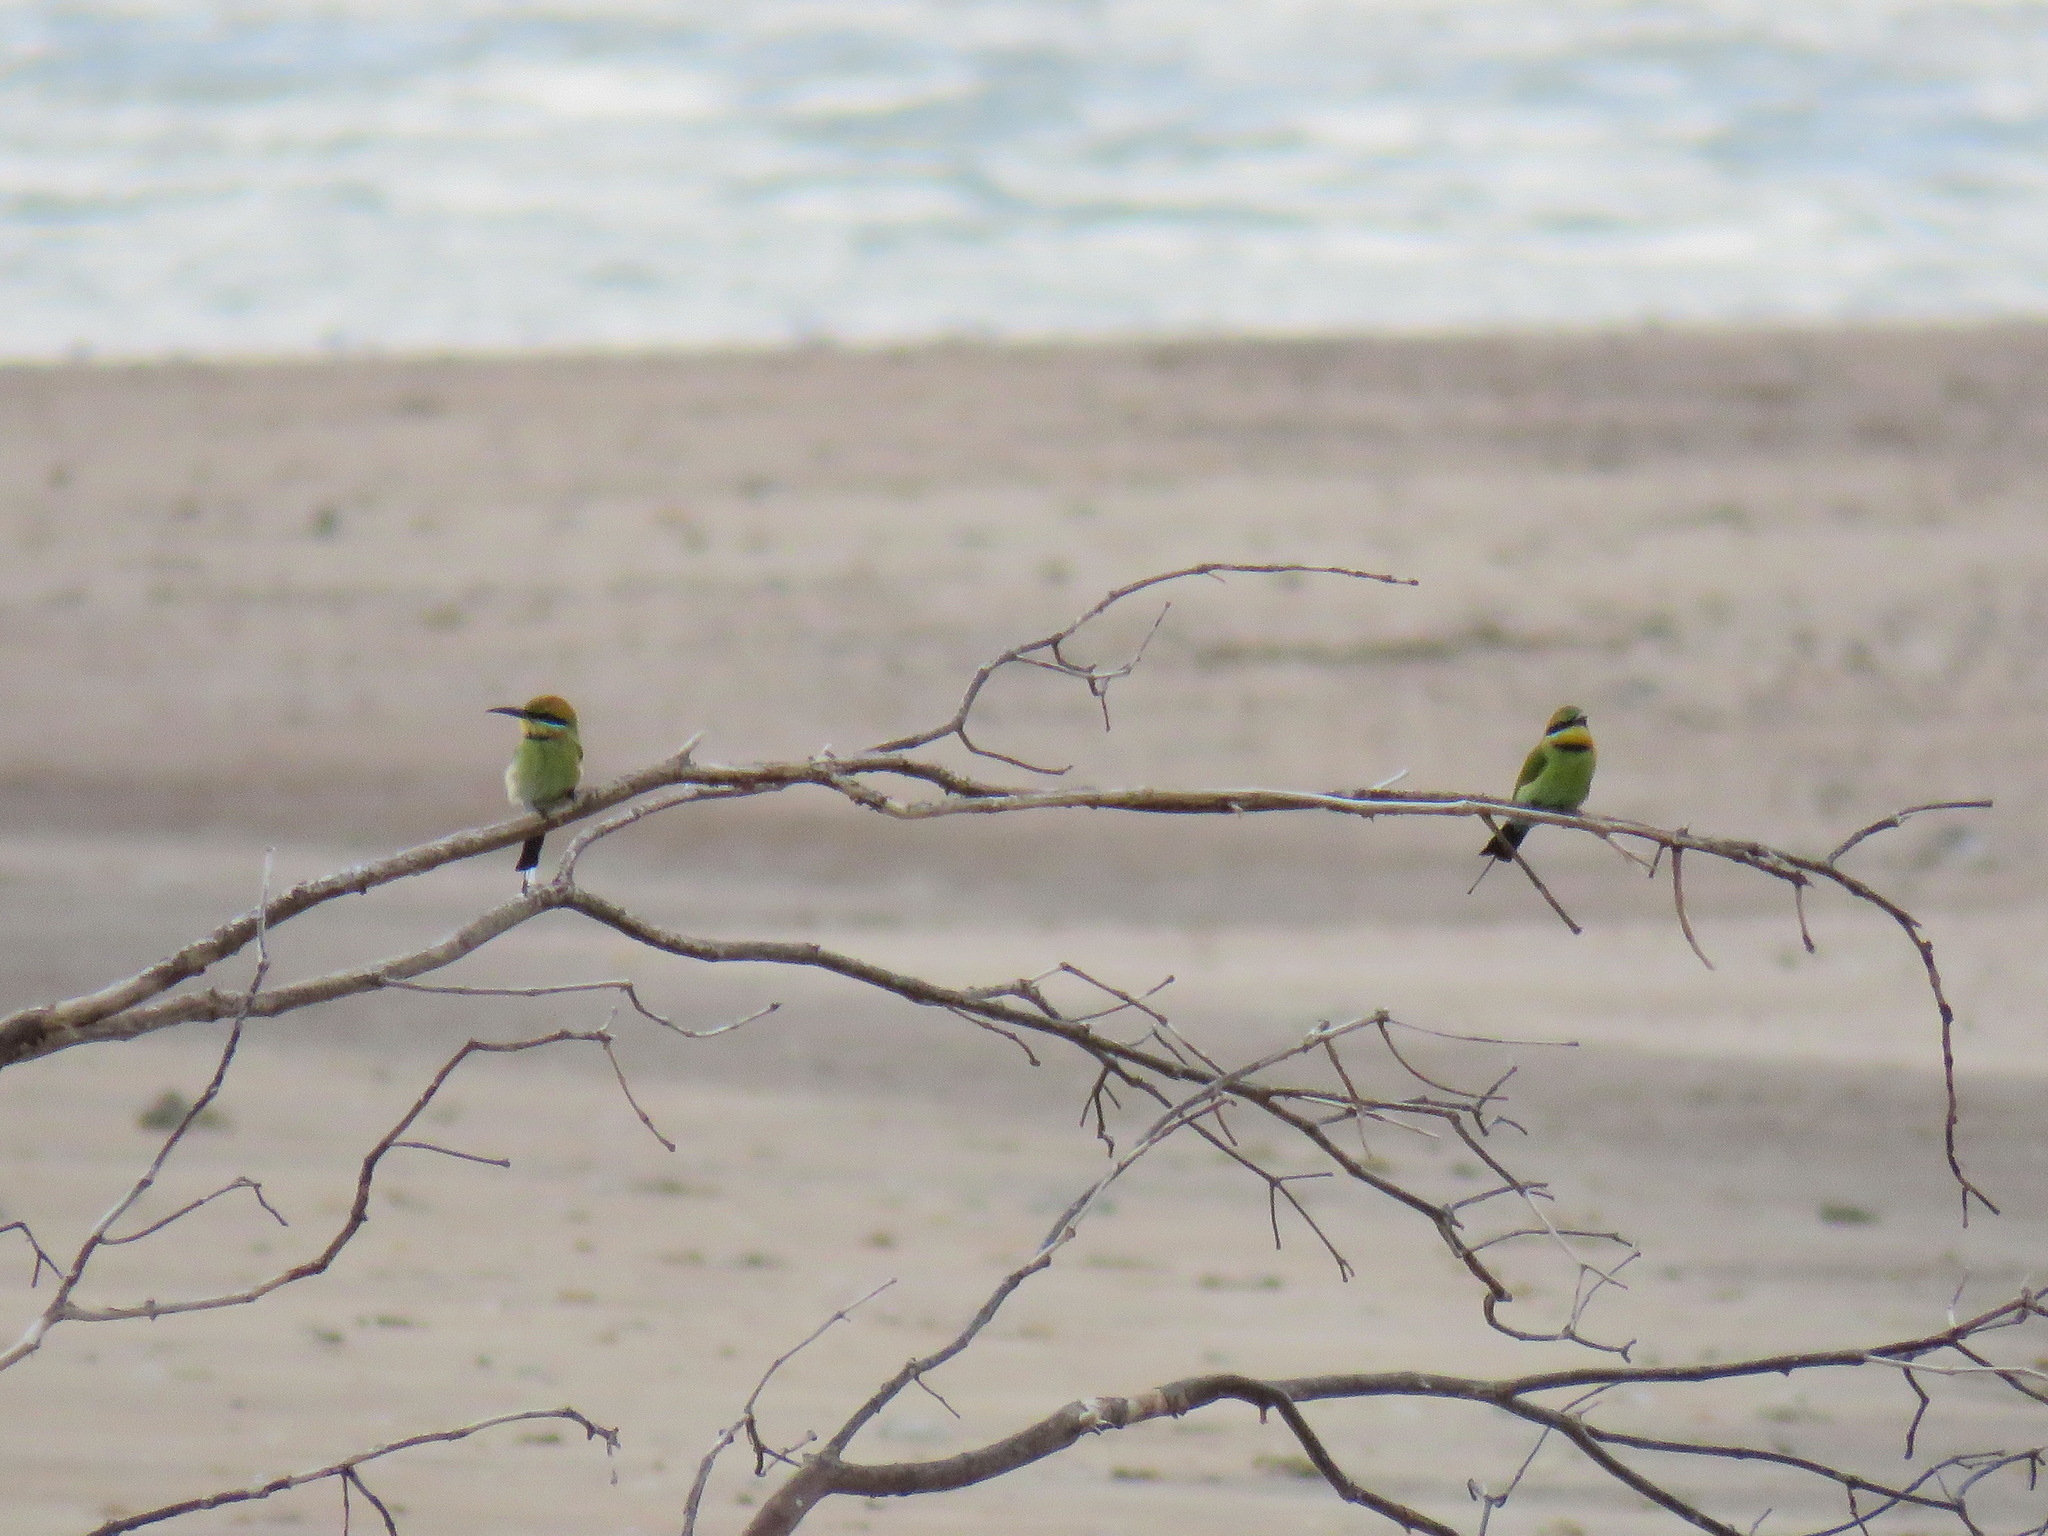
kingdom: Animalia
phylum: Chordata
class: Aves
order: Coraciiformes
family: Meropidae
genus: Merops
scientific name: Merops ornatus
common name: Rainbow bee-eater
